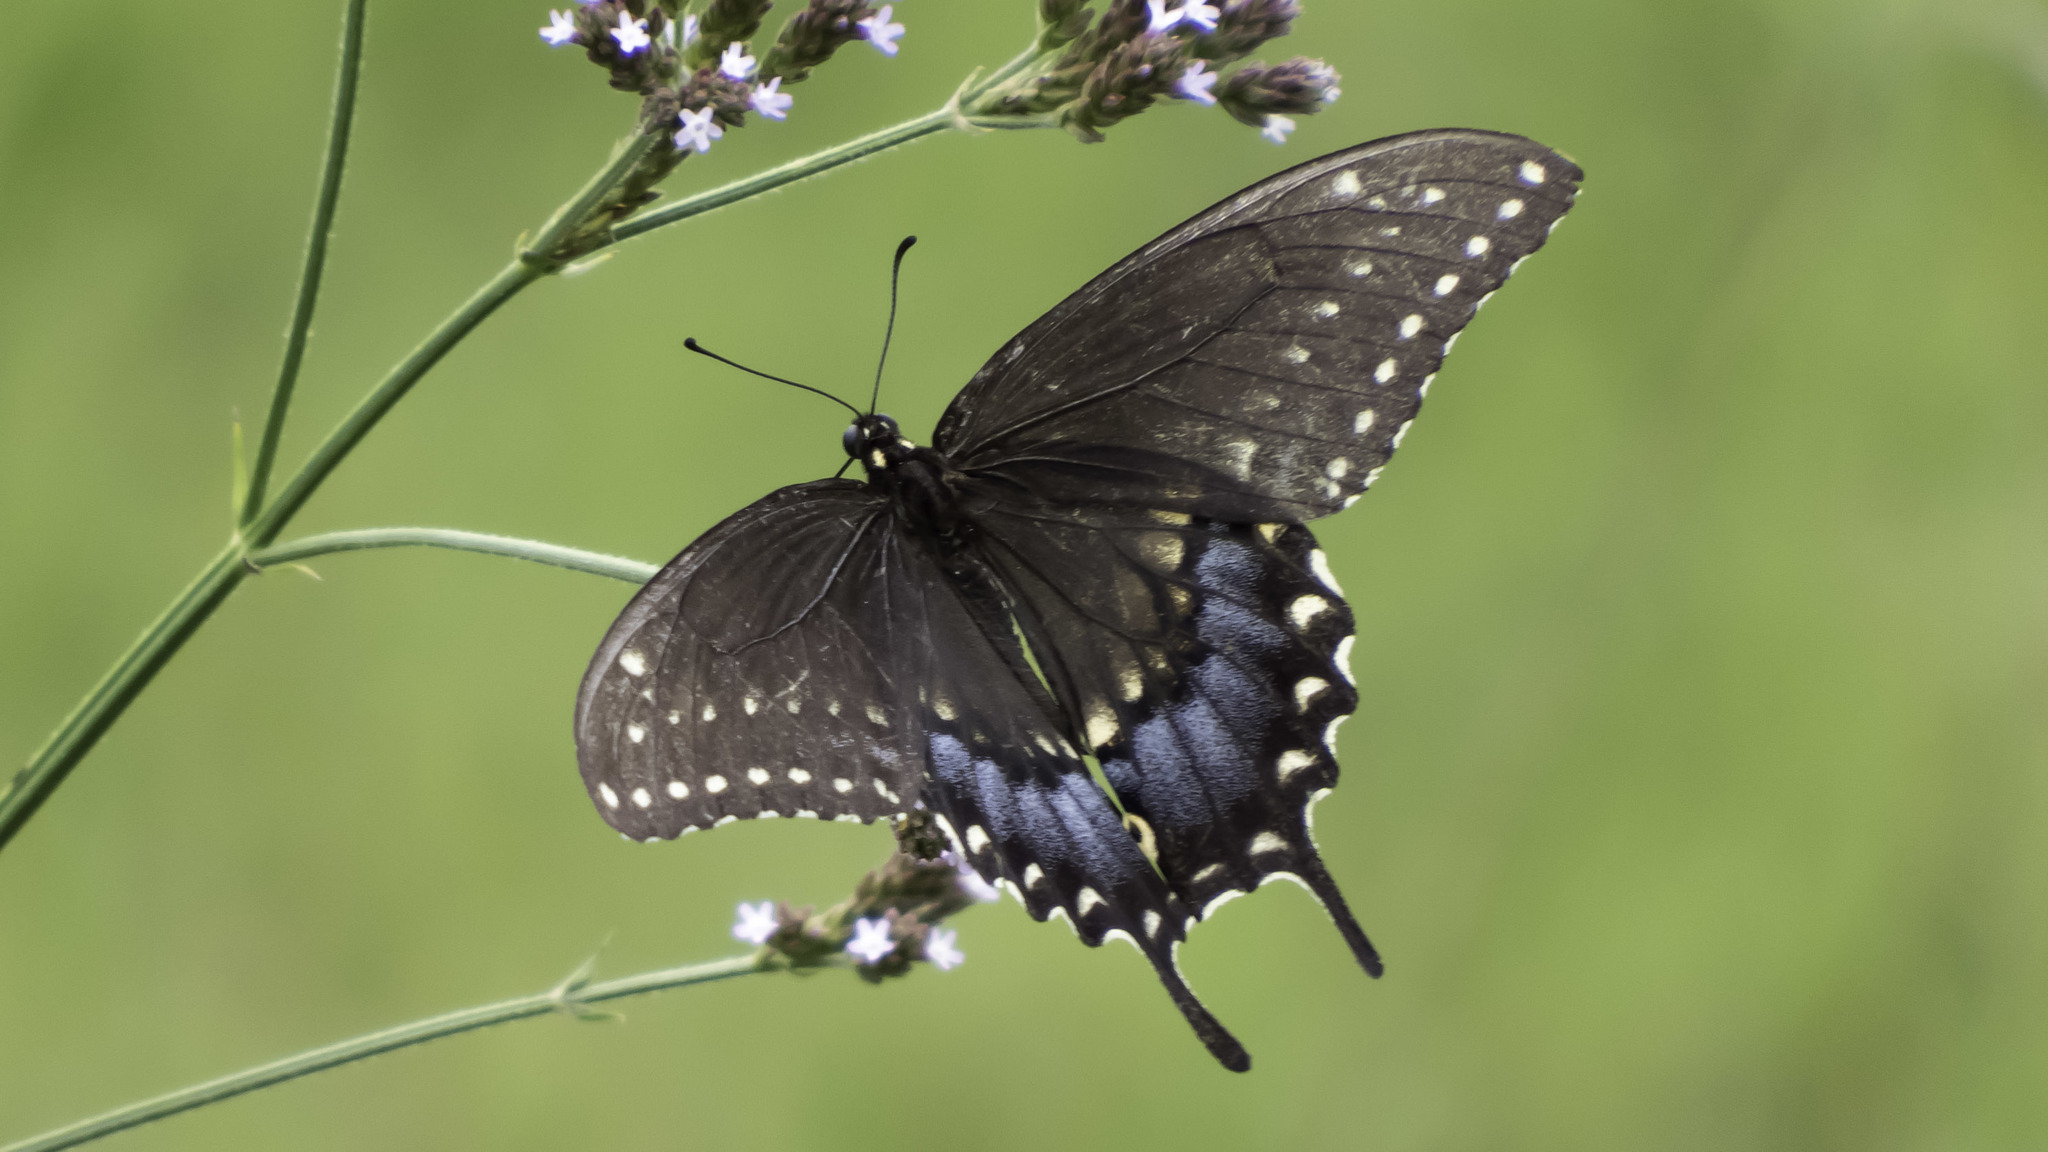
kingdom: Animalia
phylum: Arthropoda
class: Insecta
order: Lepidoptera
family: Papilionidae
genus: Papilio
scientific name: Papilio polyxenes
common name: Black swallowtail
